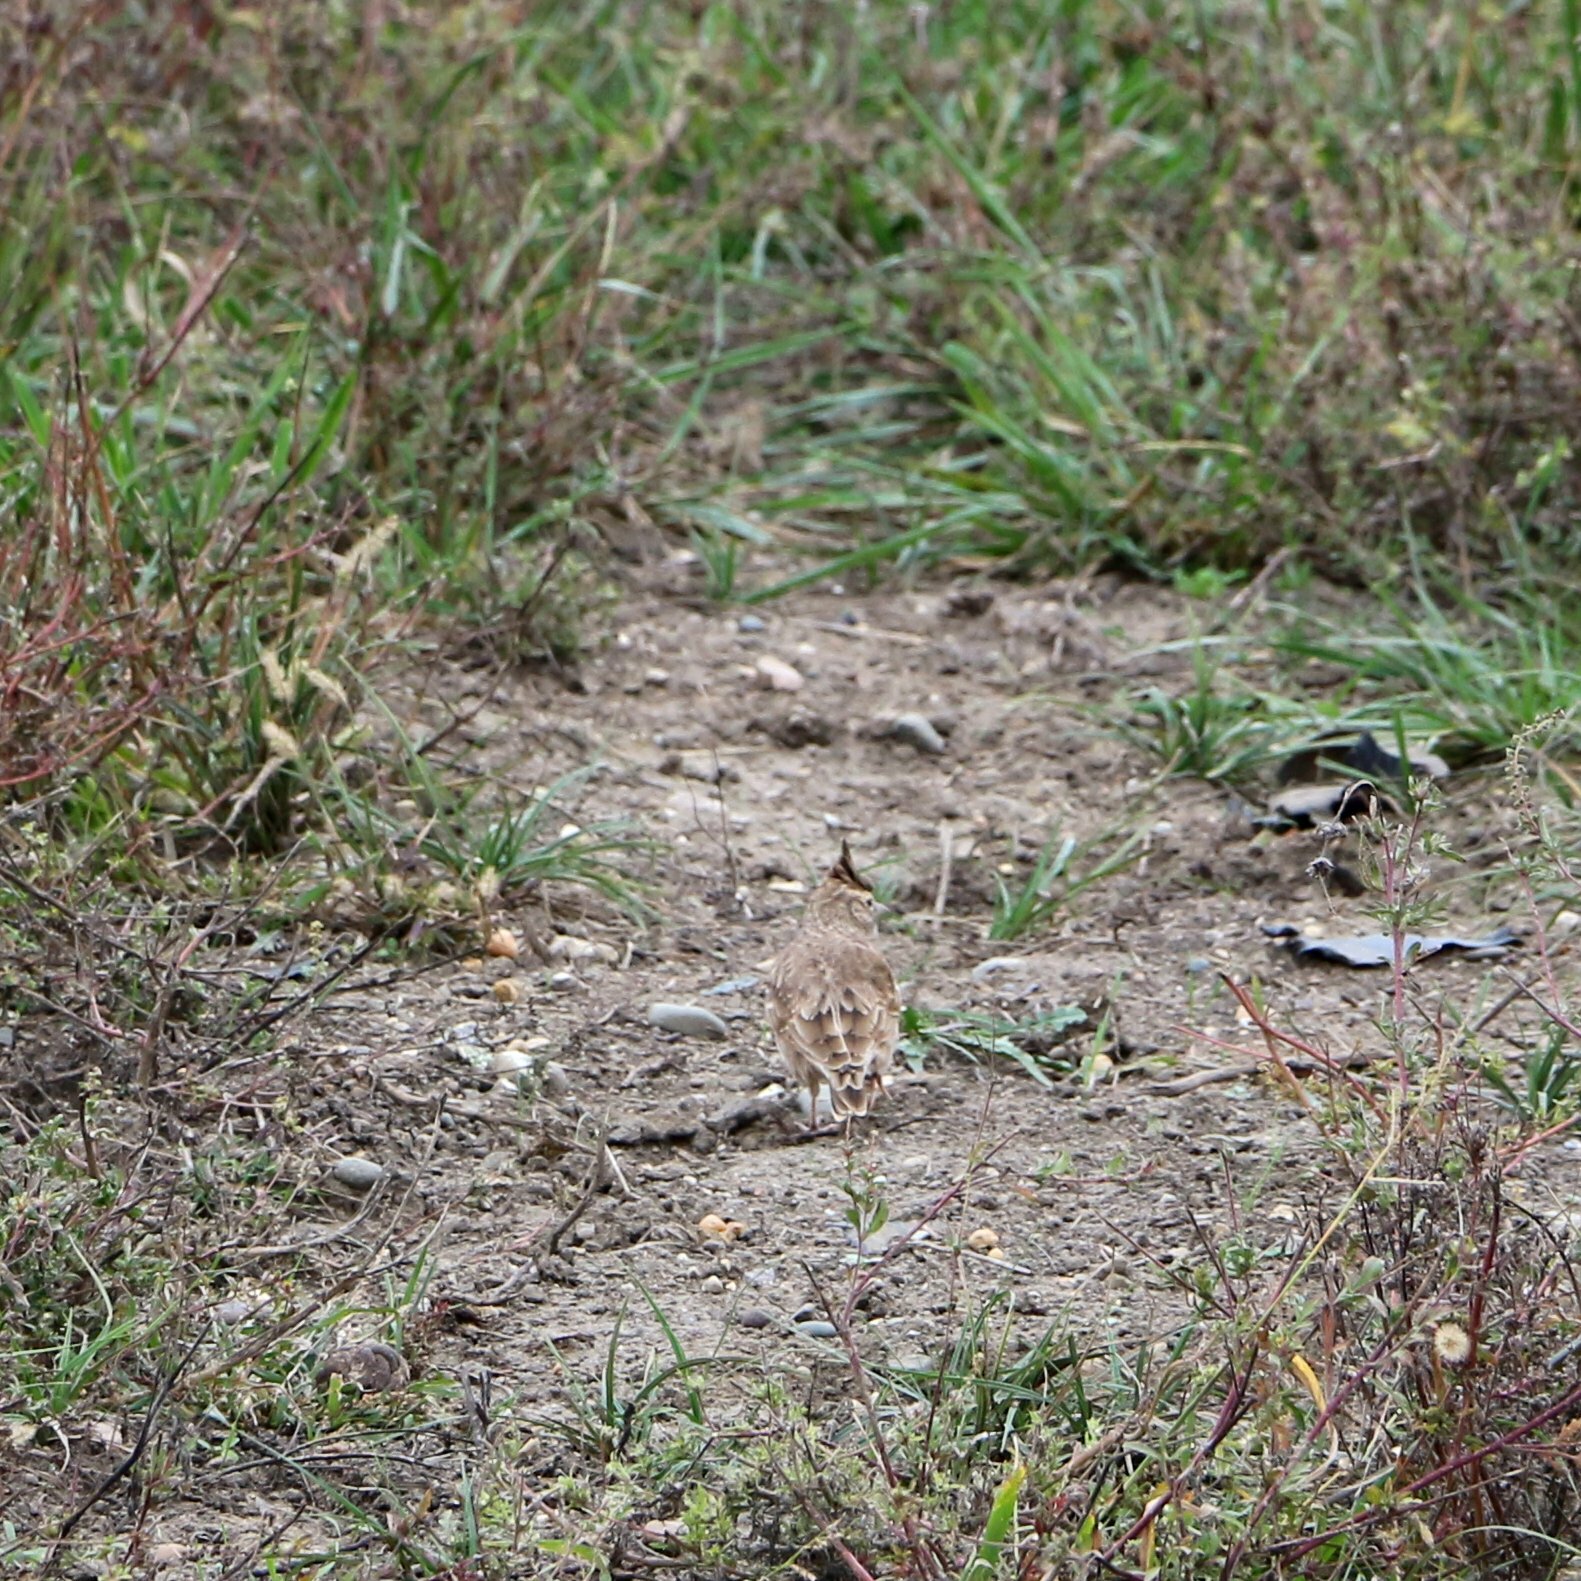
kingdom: Animalia
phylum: Chordata
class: Aves
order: Passeriformes
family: Alaudidae
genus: Galerida
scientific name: Galerida cristata
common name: Crested lark
